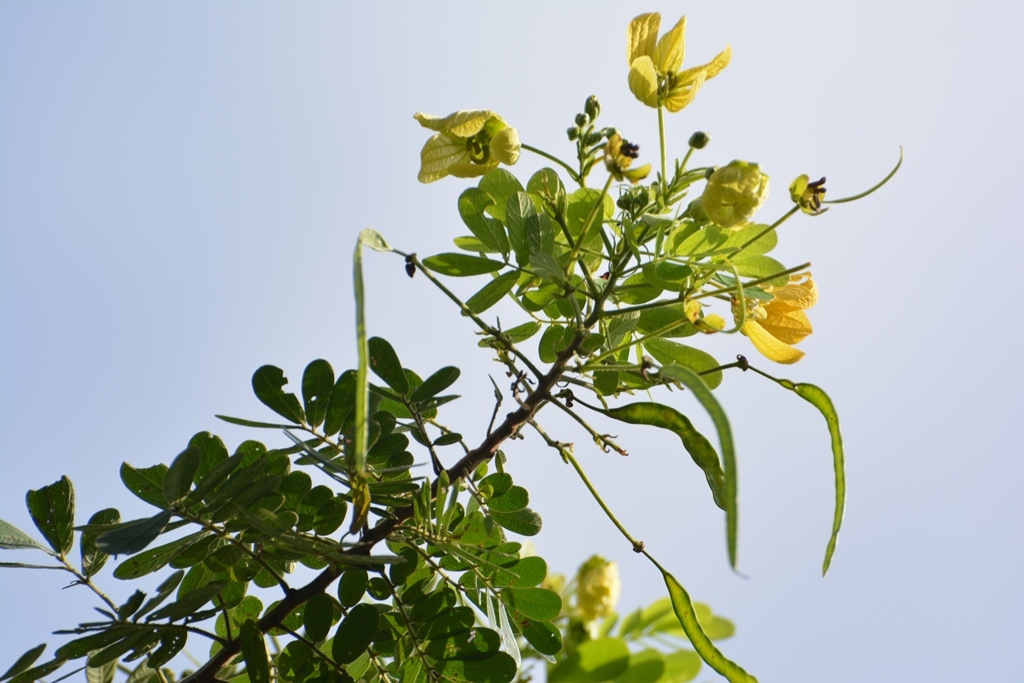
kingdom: Plantae
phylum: Tracheophyta
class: Magnoliopsida
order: Fabales
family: Fabaceae
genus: Senna
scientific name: Senna holwayana
